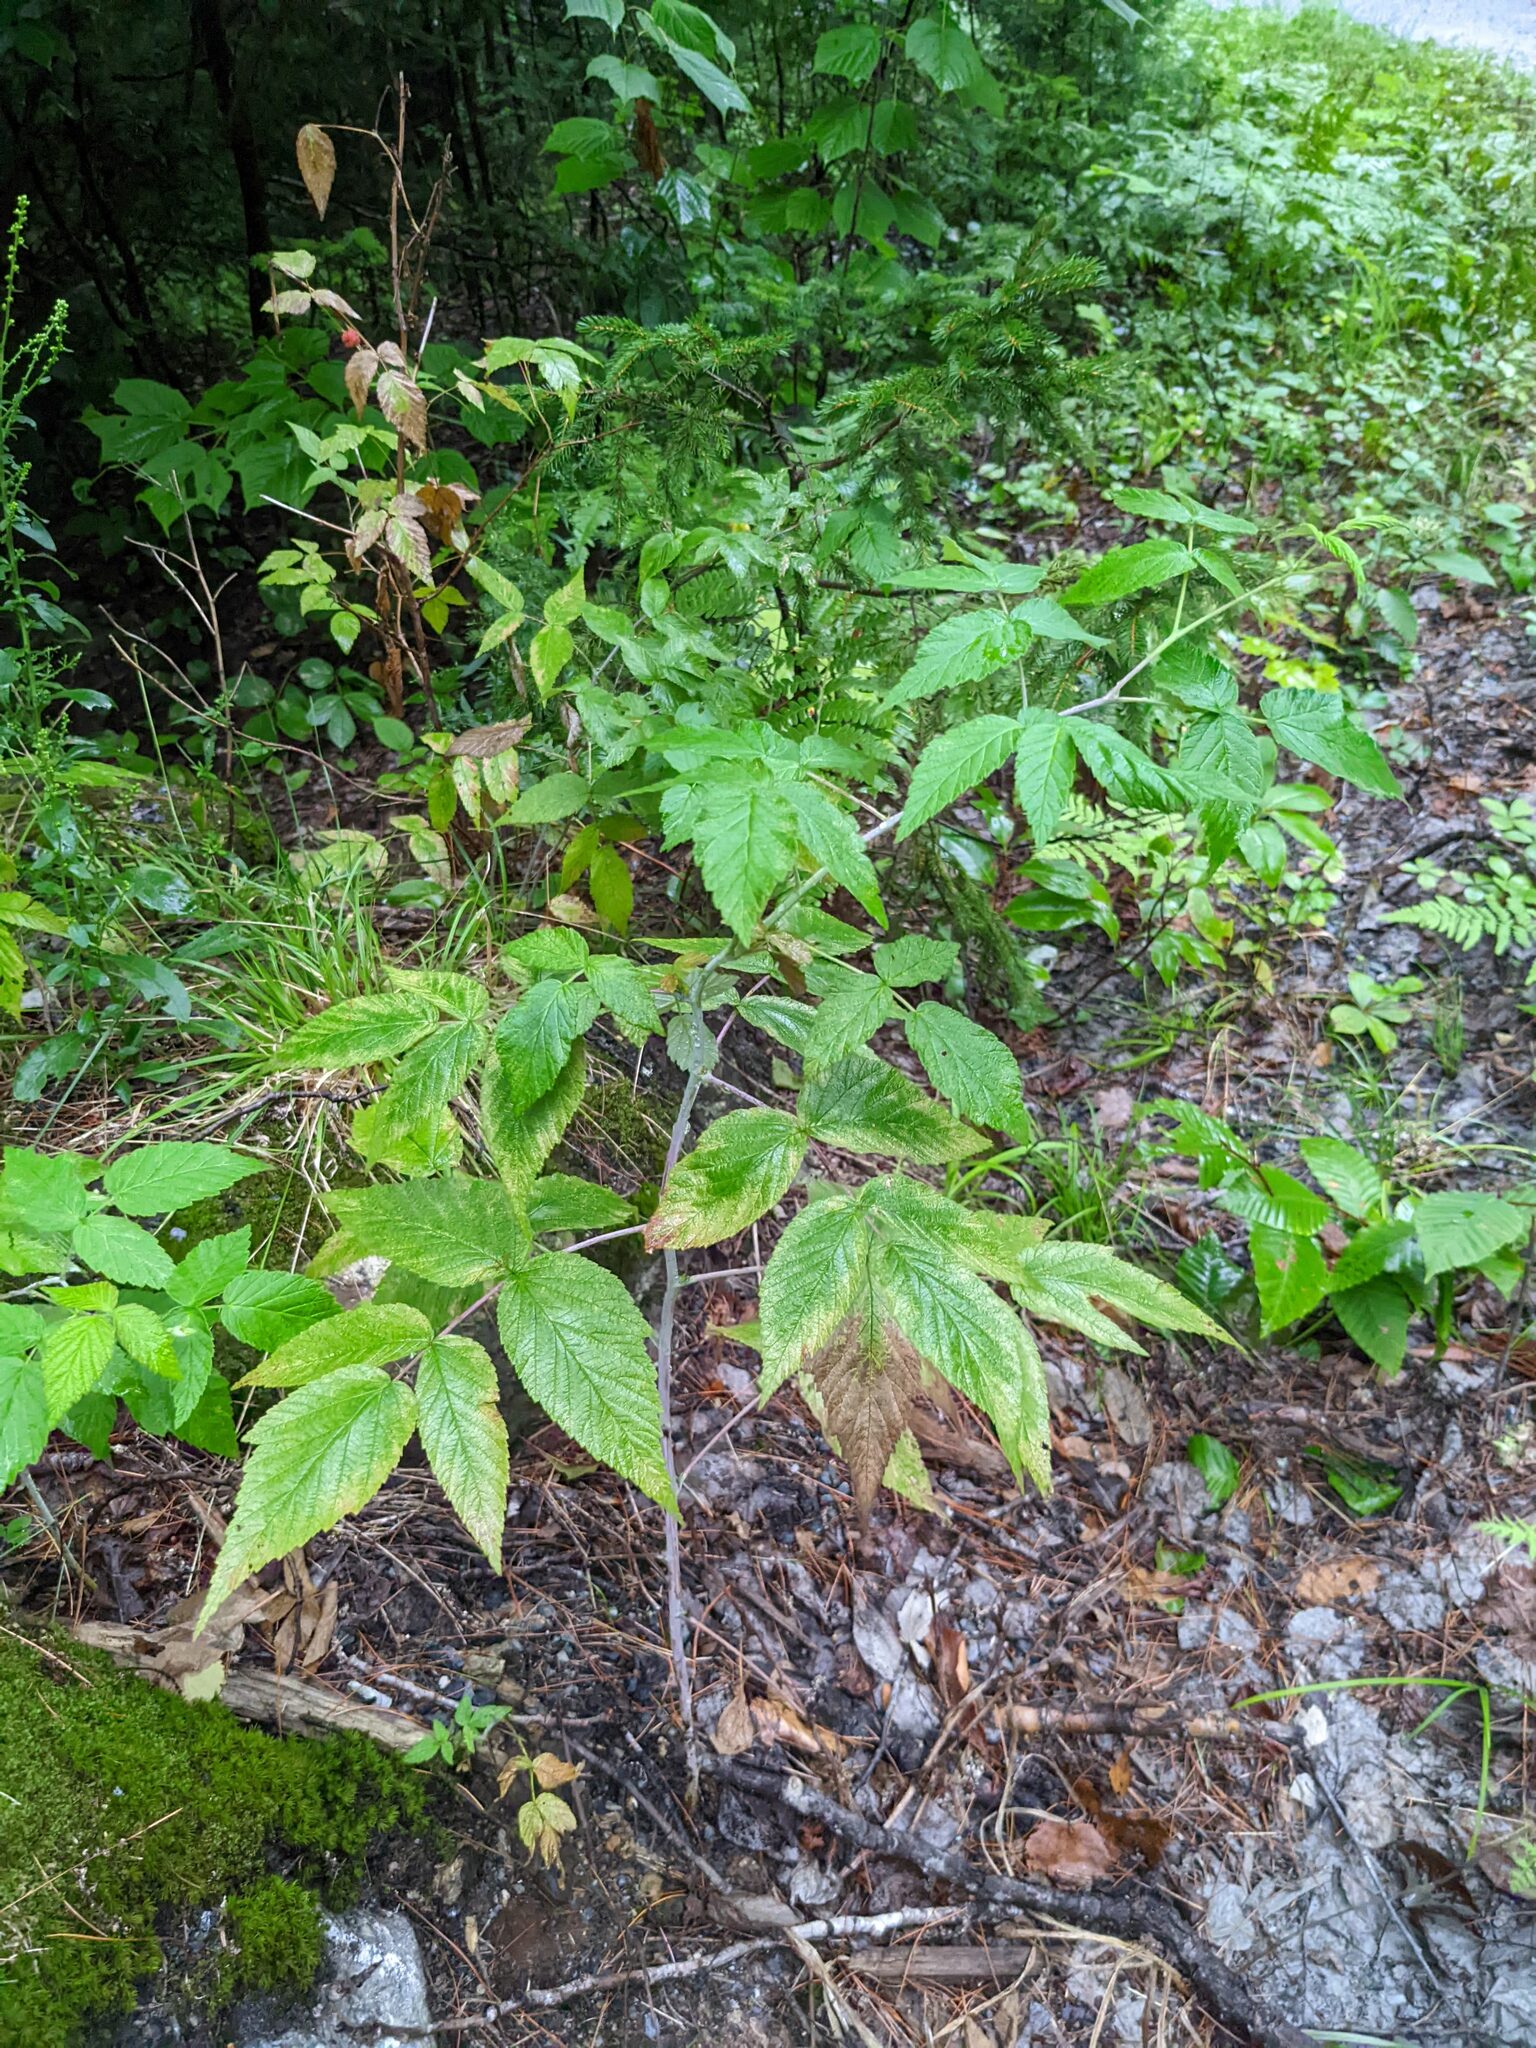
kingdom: Plantae
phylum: Tracheophyta
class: Magnoliopsida
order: Rosales
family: Rosaceae
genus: Rubus
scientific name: Rubus idaeus
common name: Raspberry
